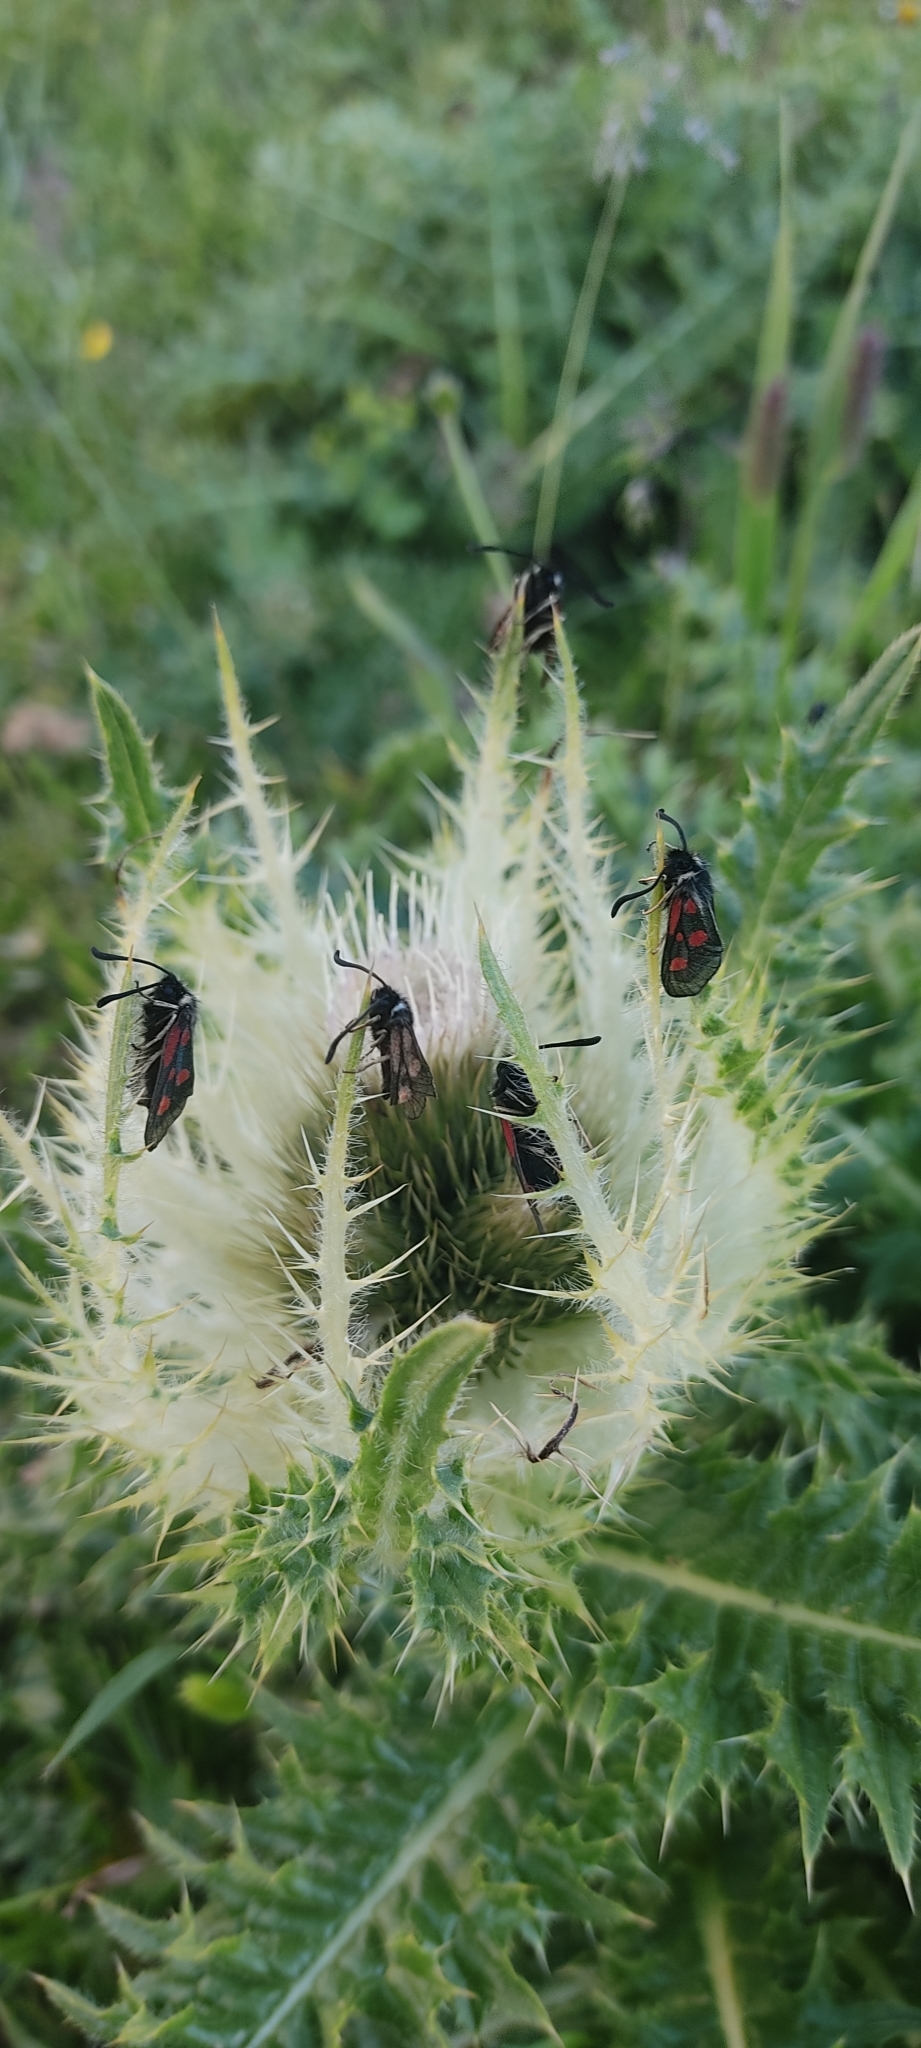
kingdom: Animalia
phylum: Arthropoda
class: Insecta
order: Lepidoptera
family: Zygaenidae
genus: Zygaena
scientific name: Zygaena exulans
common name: Scotch burnet
